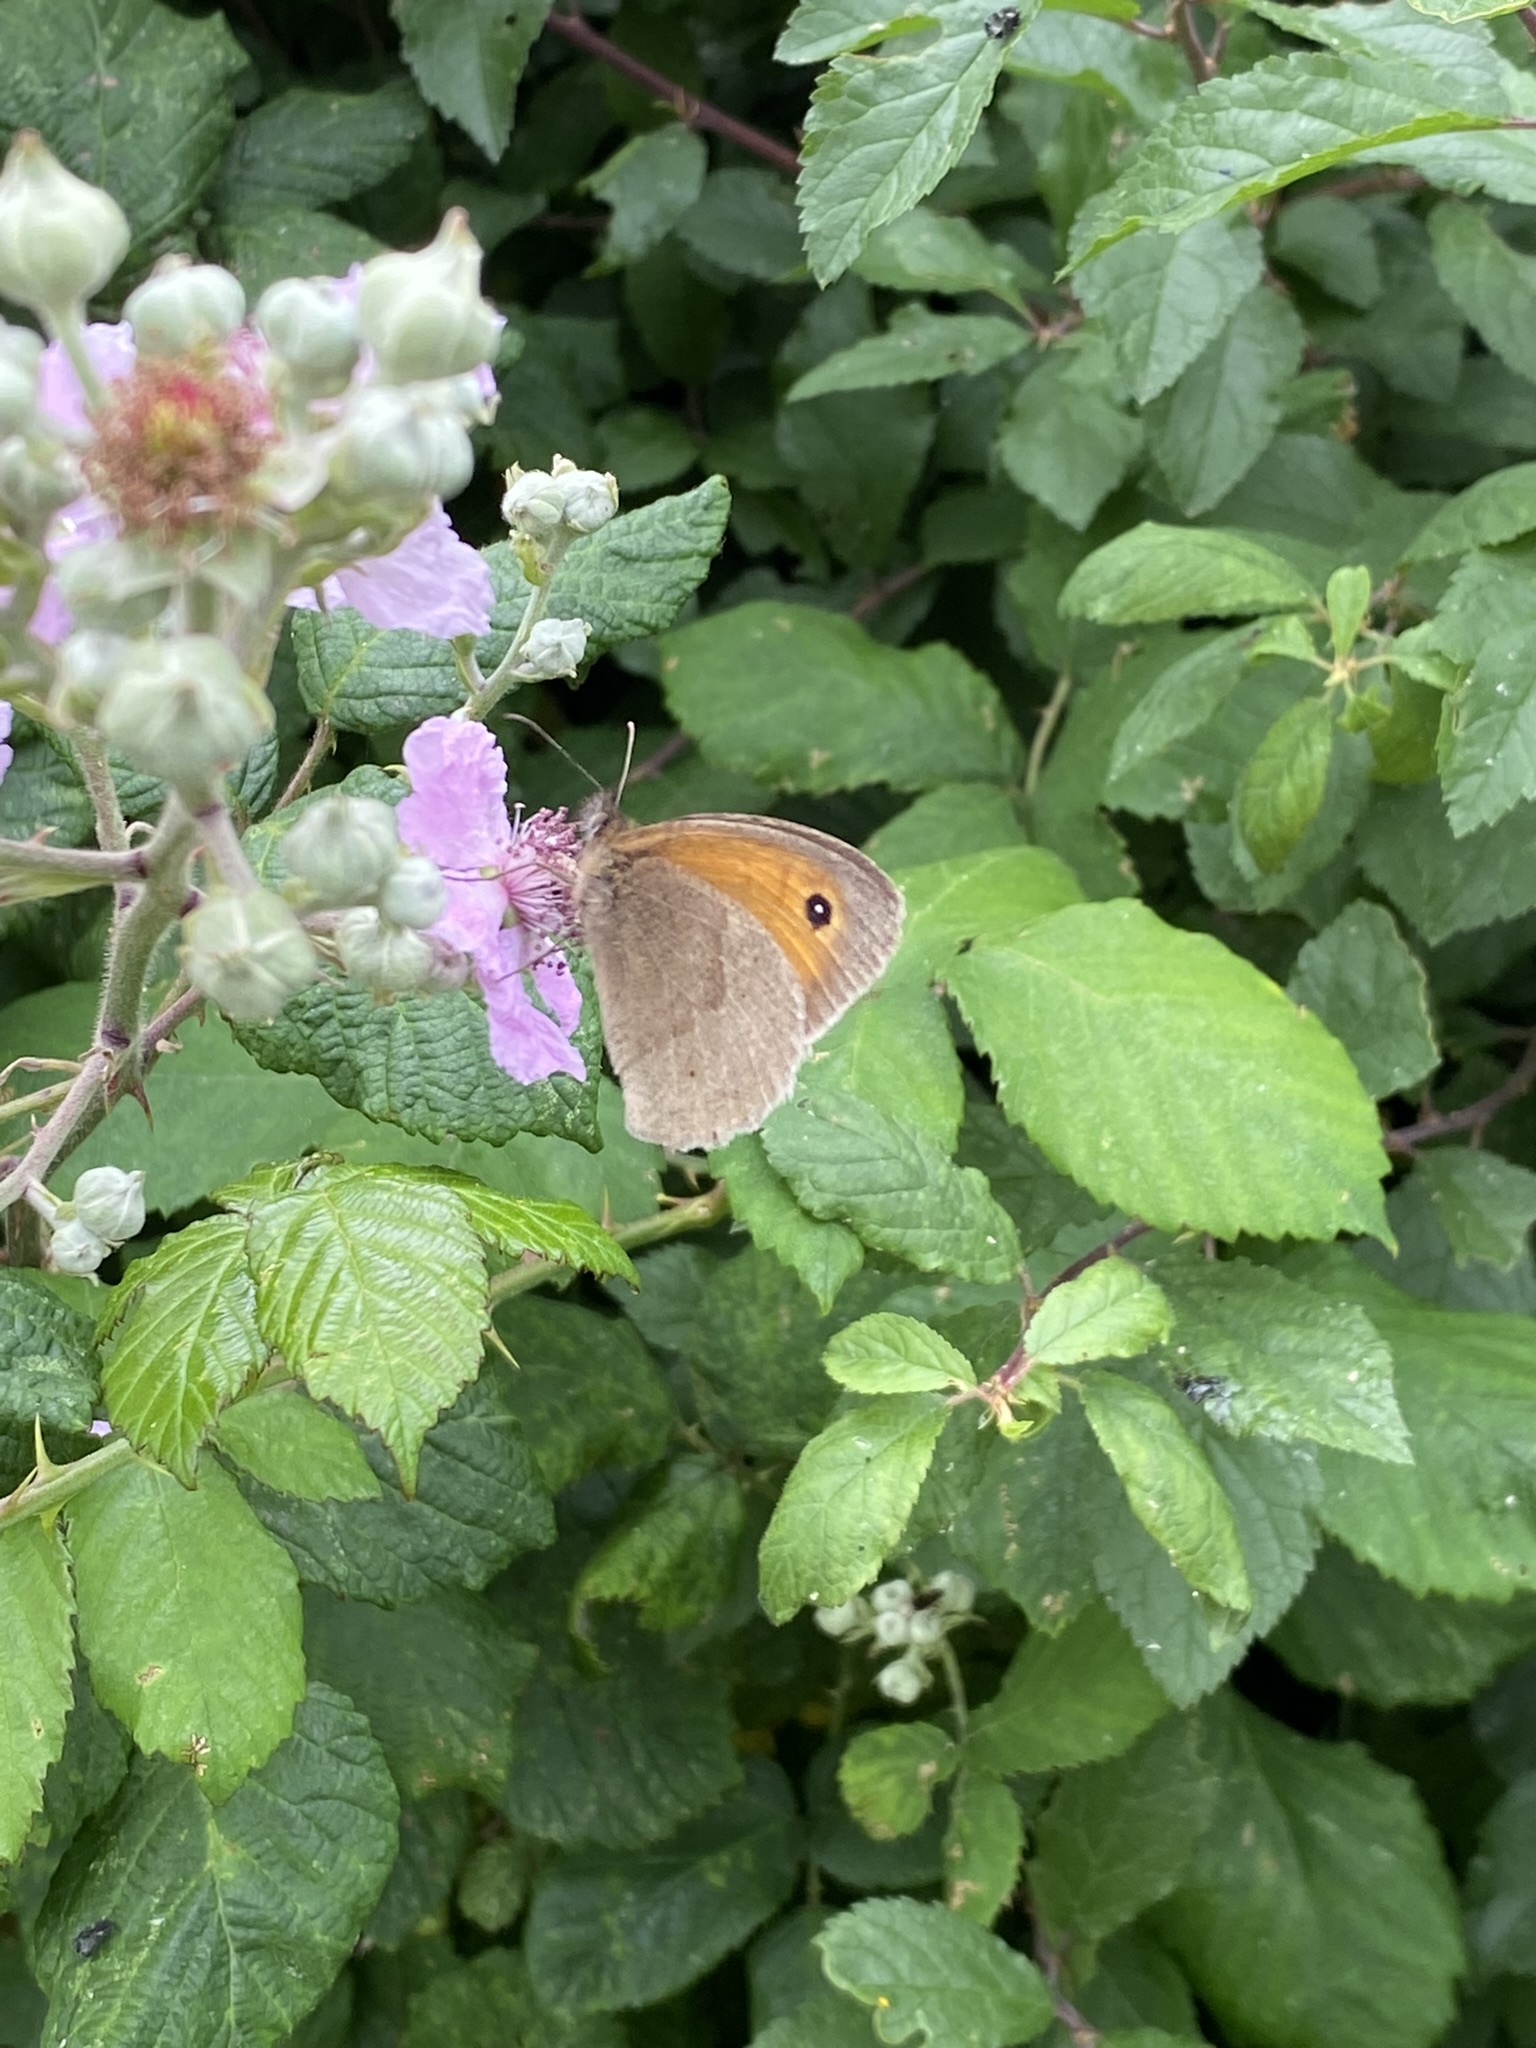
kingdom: Animalia
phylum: Arthropoda
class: Insecta
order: Lepidoptera
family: Nymphalidae
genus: Maniola
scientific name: Maniola jurtina
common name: Meadow brown
